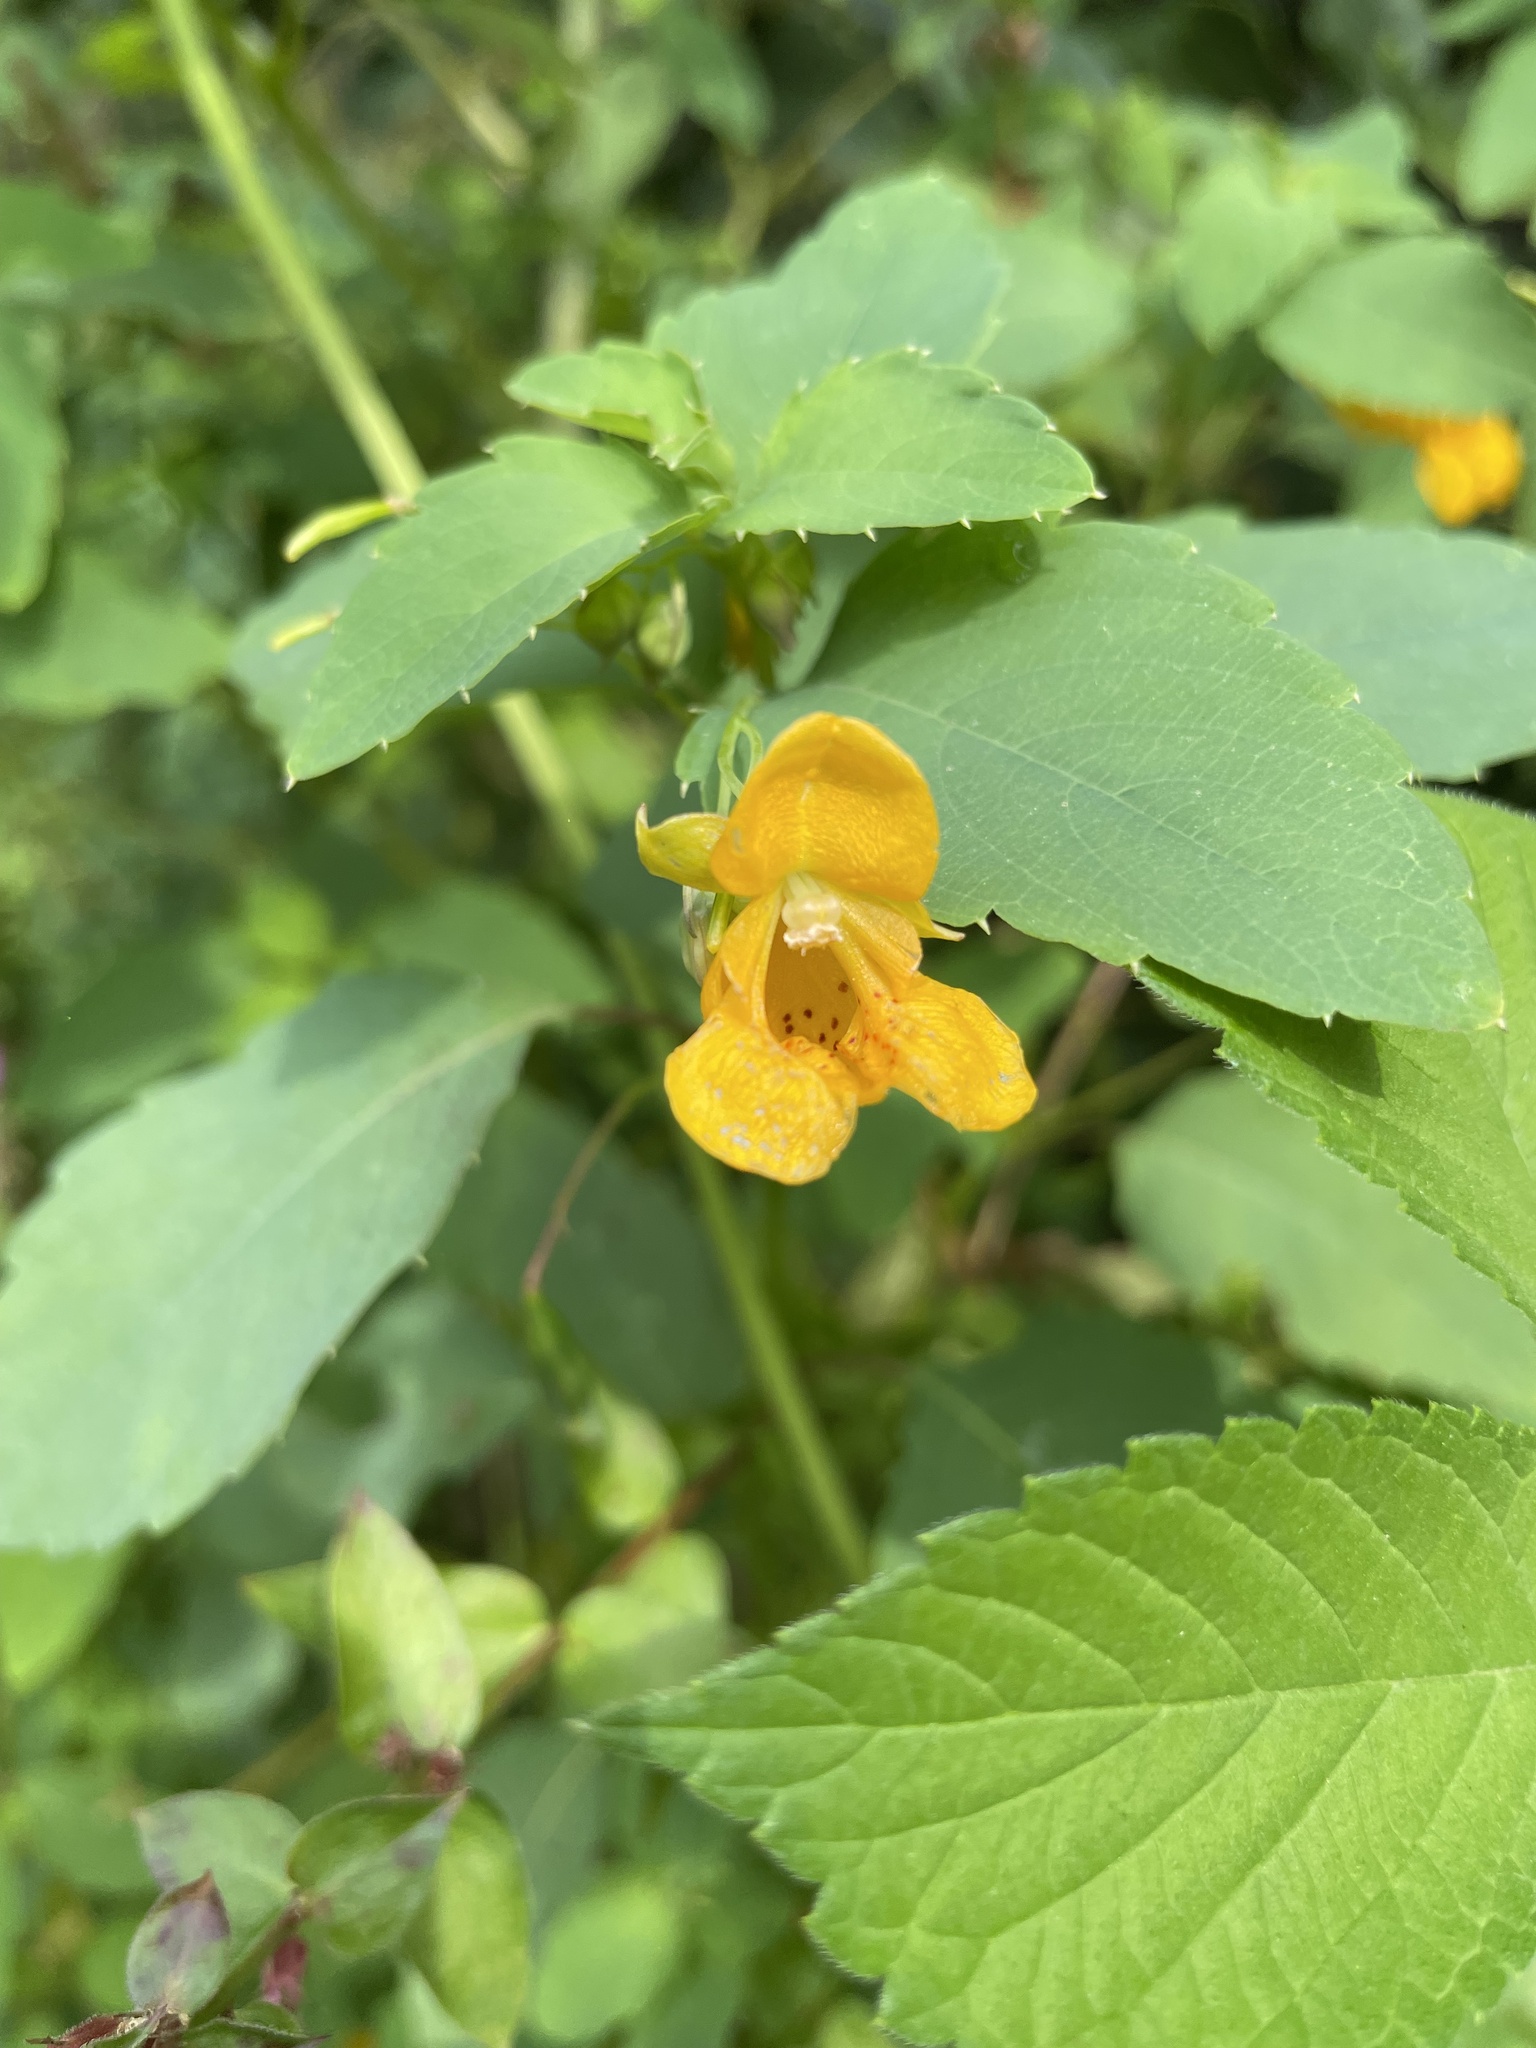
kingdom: Plantae
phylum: Tracheophyta
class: Magnoliopsida
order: Ericales
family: Balsaminaceae
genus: Impatiens
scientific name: Impatiens capensis
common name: Orange balsam
